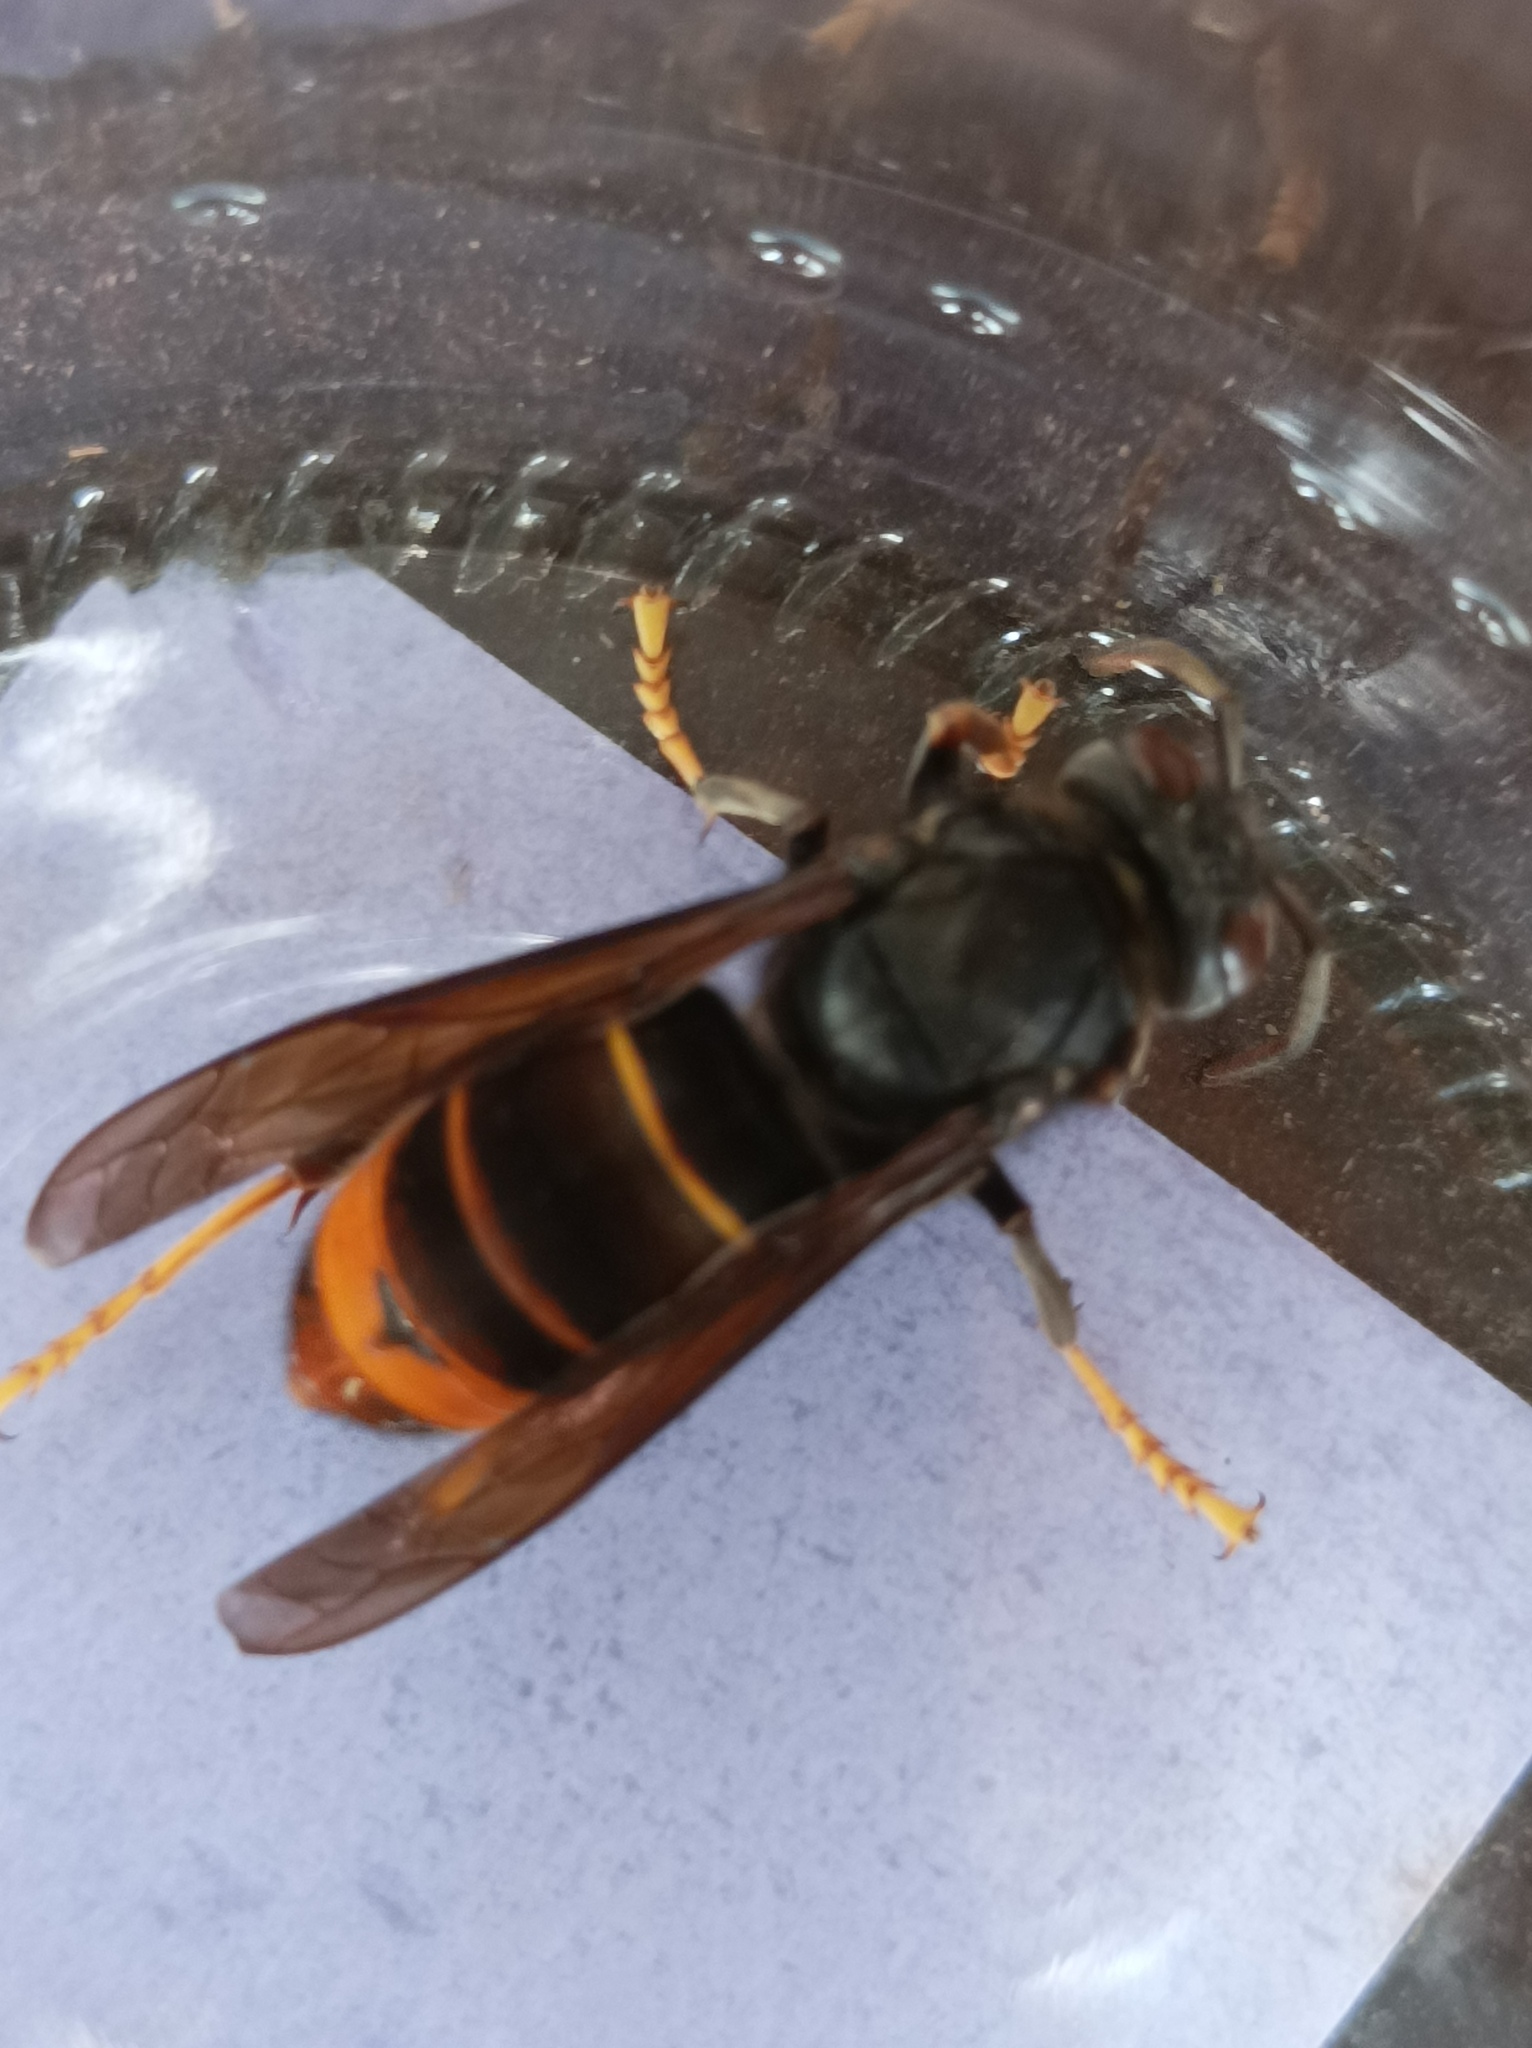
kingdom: Animalia
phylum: Arthropoda
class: Insecta
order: Hymenoptera
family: Vespidae
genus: Vespa
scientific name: Vespa velutina
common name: Asian hornet
